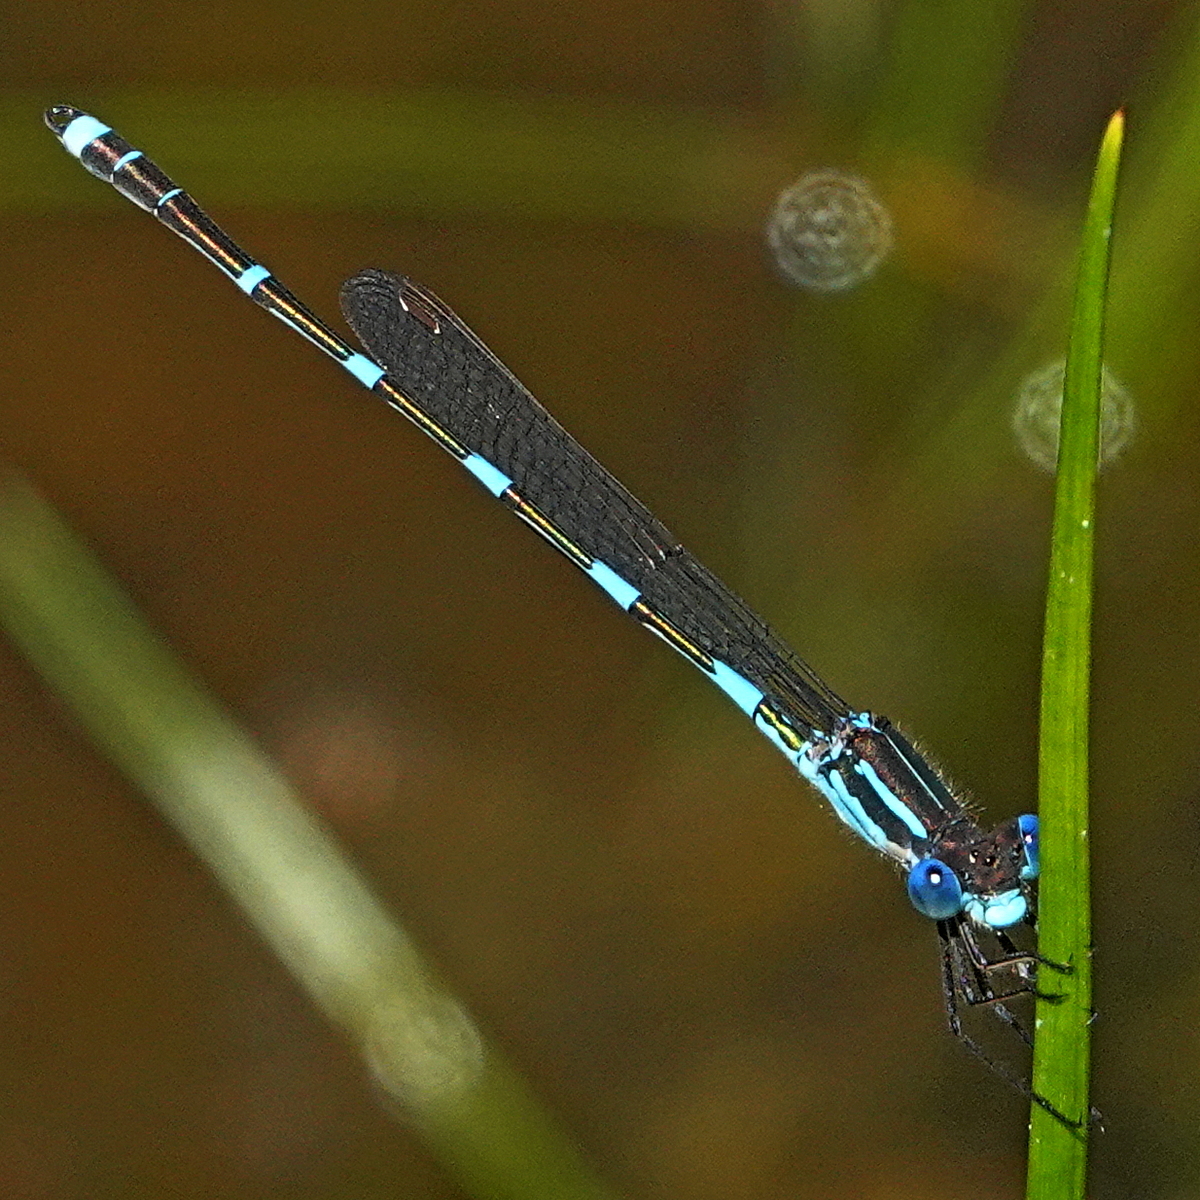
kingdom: Animalia
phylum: Arthropoda
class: Insecta
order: Odonata
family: Lestidae
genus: Austrolestes
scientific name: Austrolestes leda
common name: Wandering ringtail
